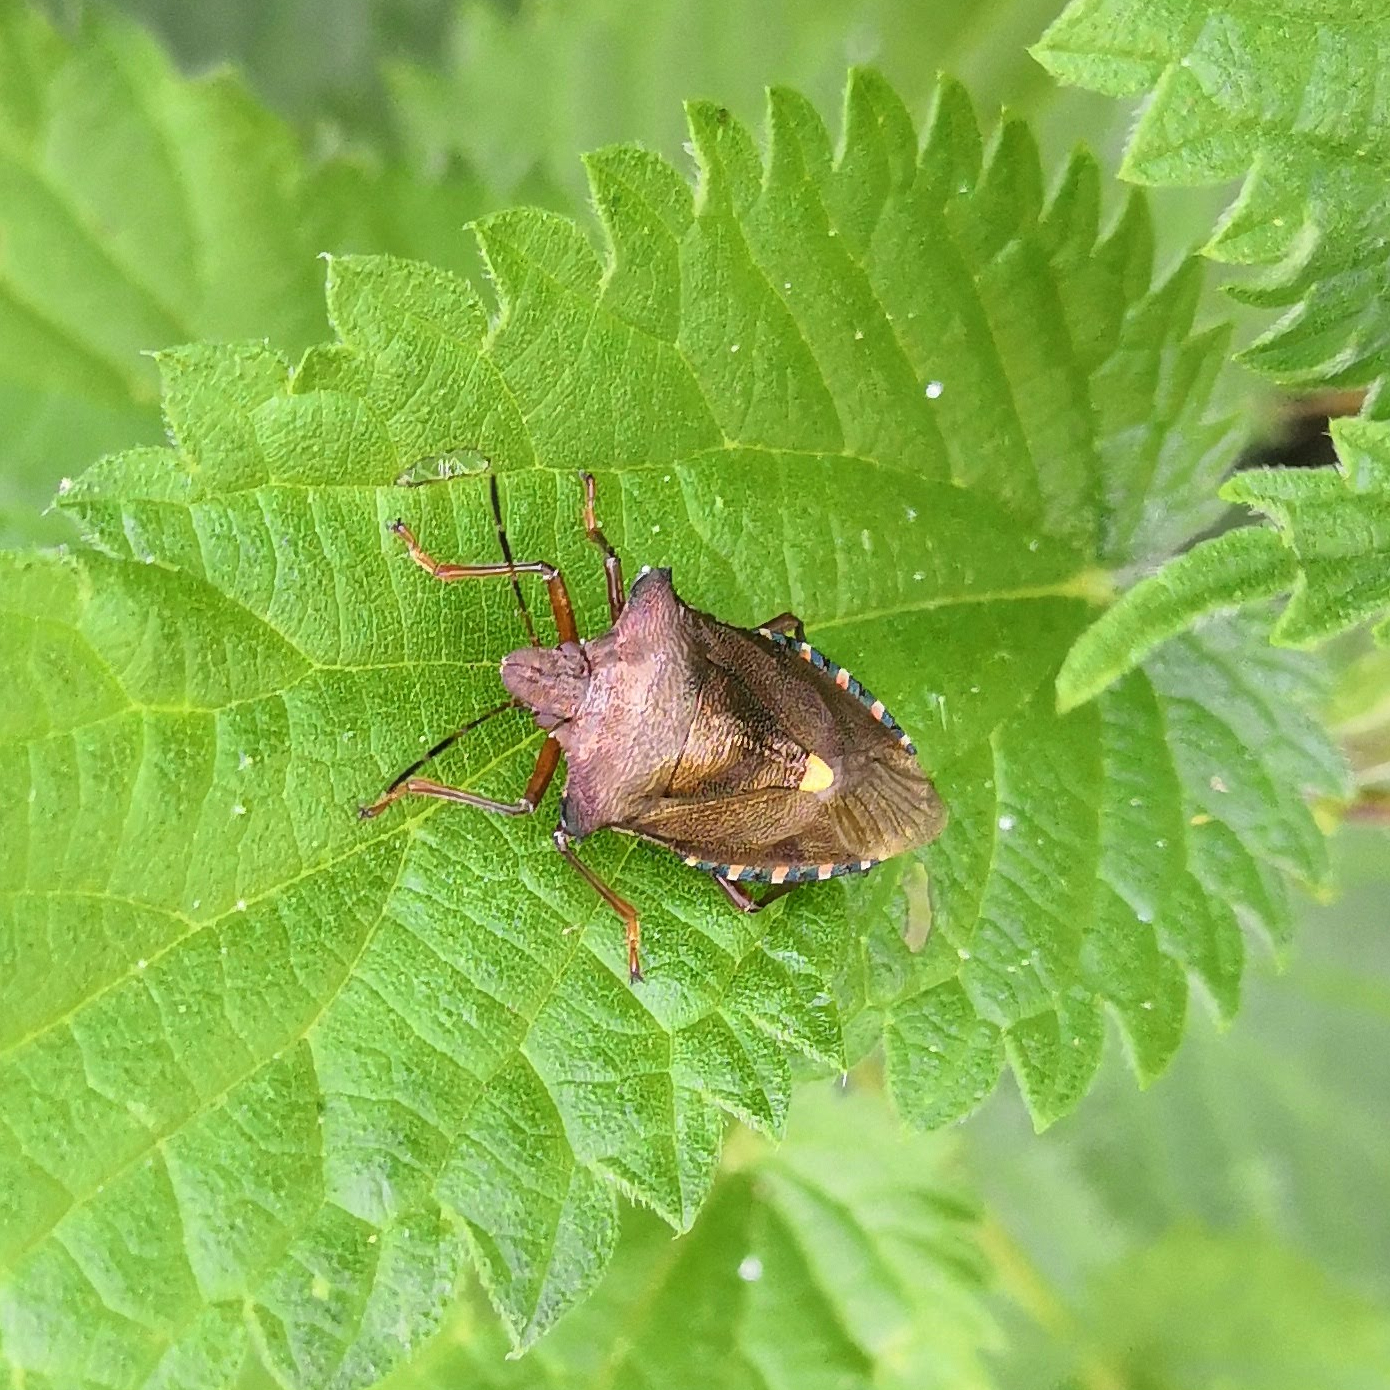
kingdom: Animalia
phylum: Arthropoda
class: Insecta
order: Hemiptera
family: Pentatomidae
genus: Pentatoma
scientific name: Pentatoma rufipes
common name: Forest bug
